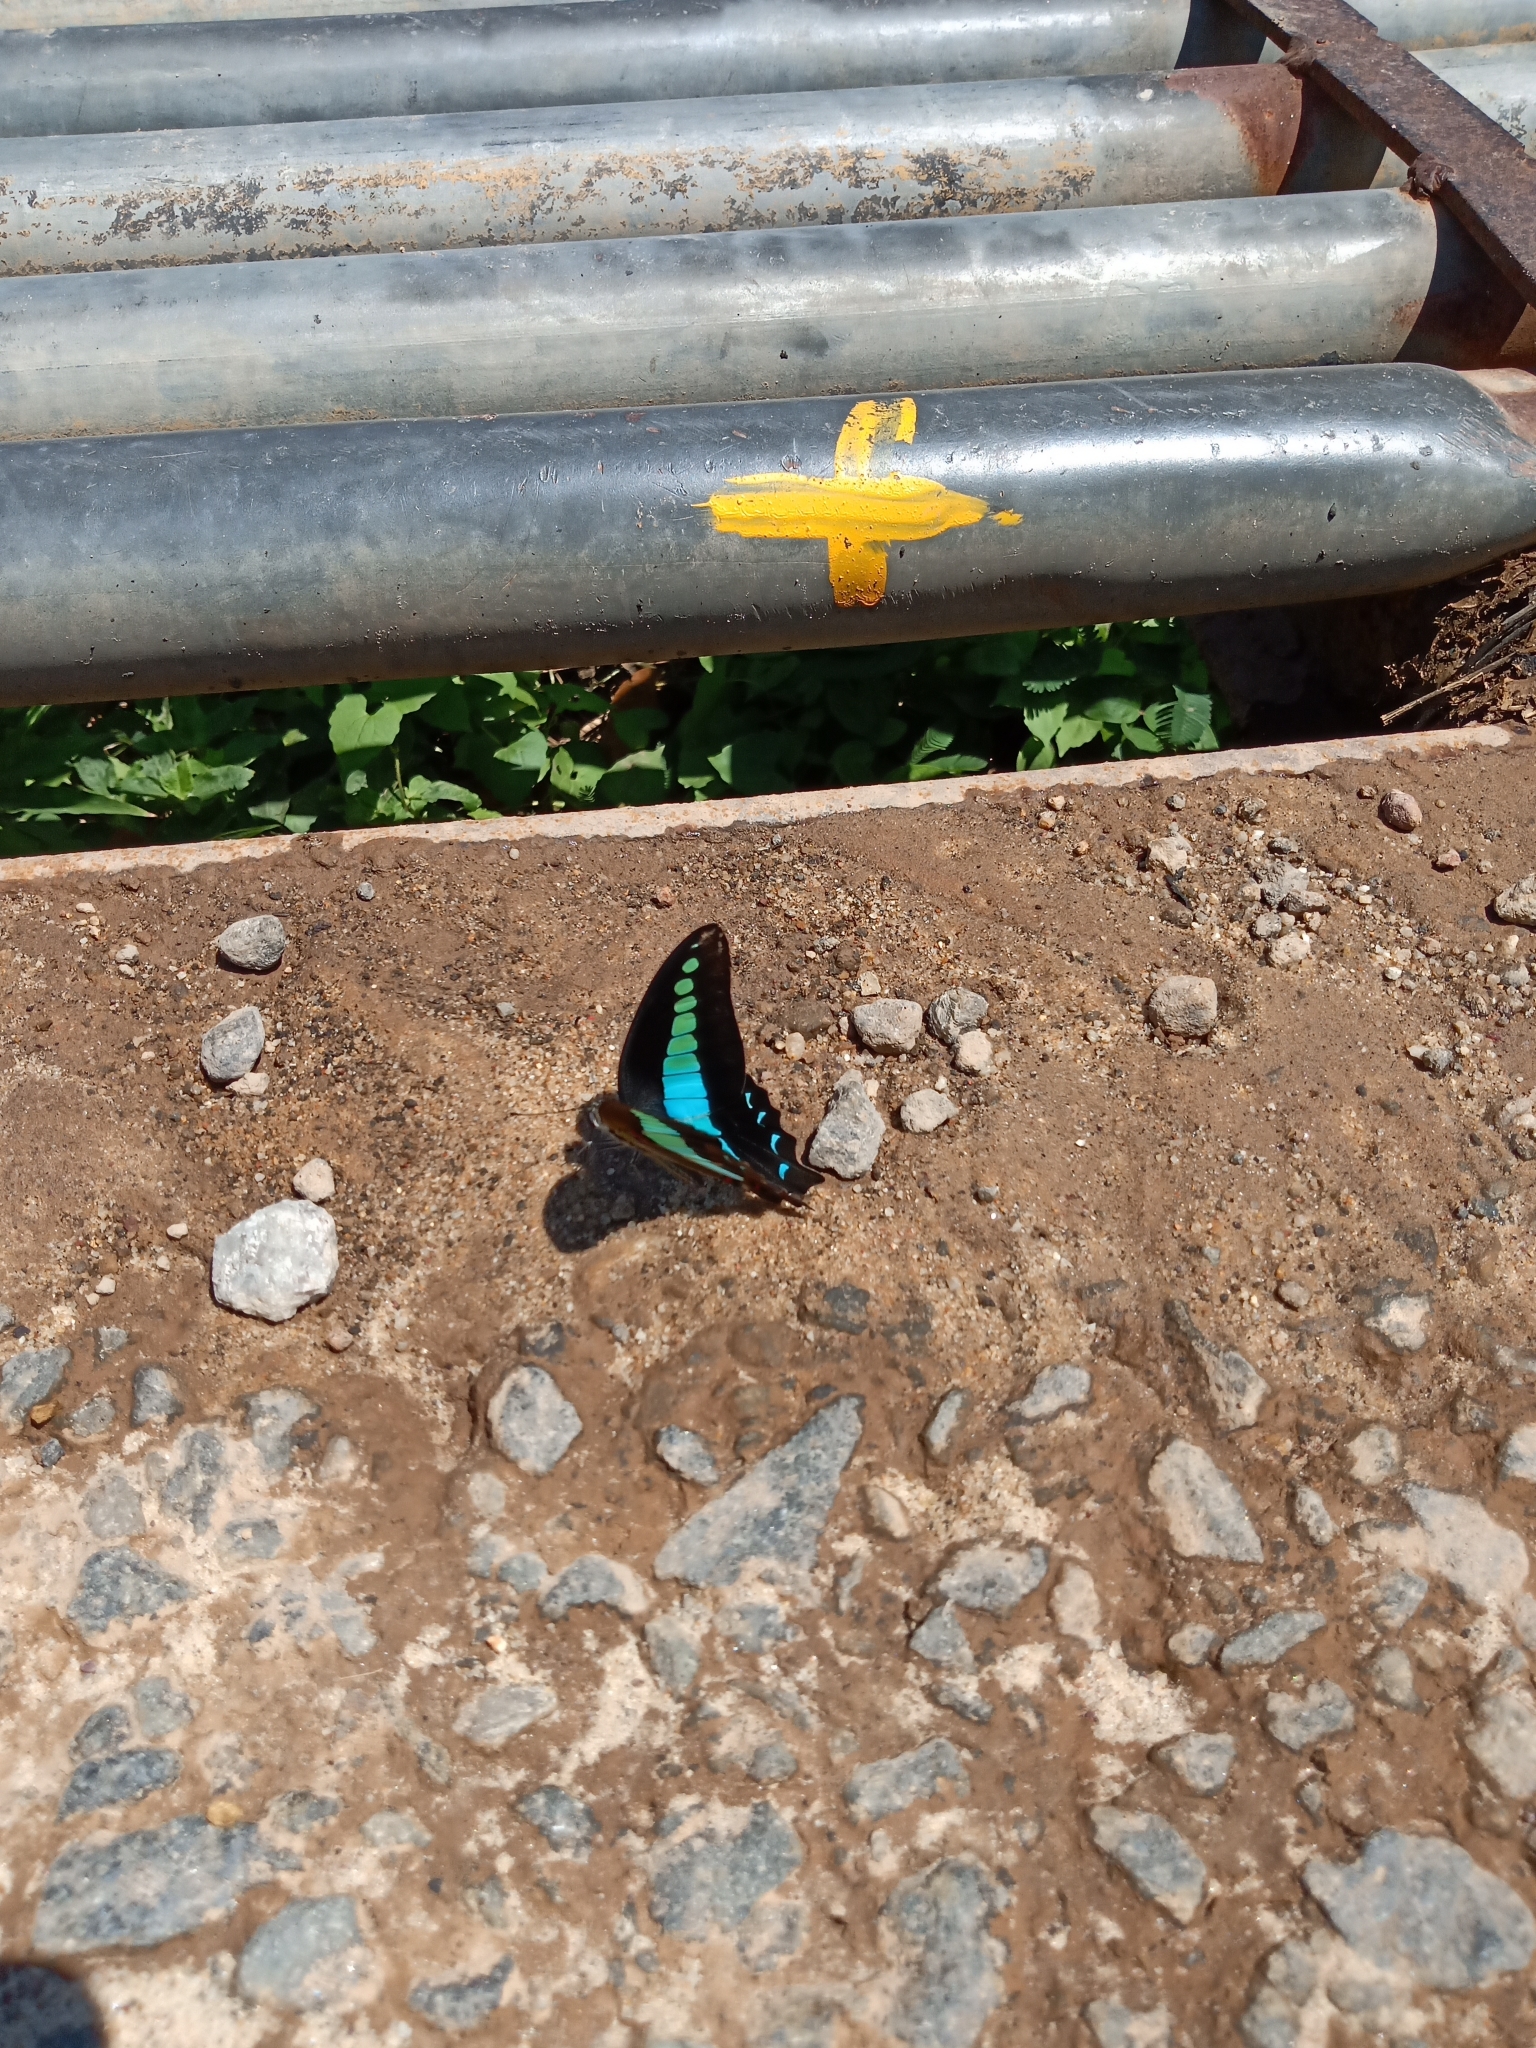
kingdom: Animalia
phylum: Arthropoda
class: Insecta
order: Lepidoptera
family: Papilionidae
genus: Graphium
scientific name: Graphium
